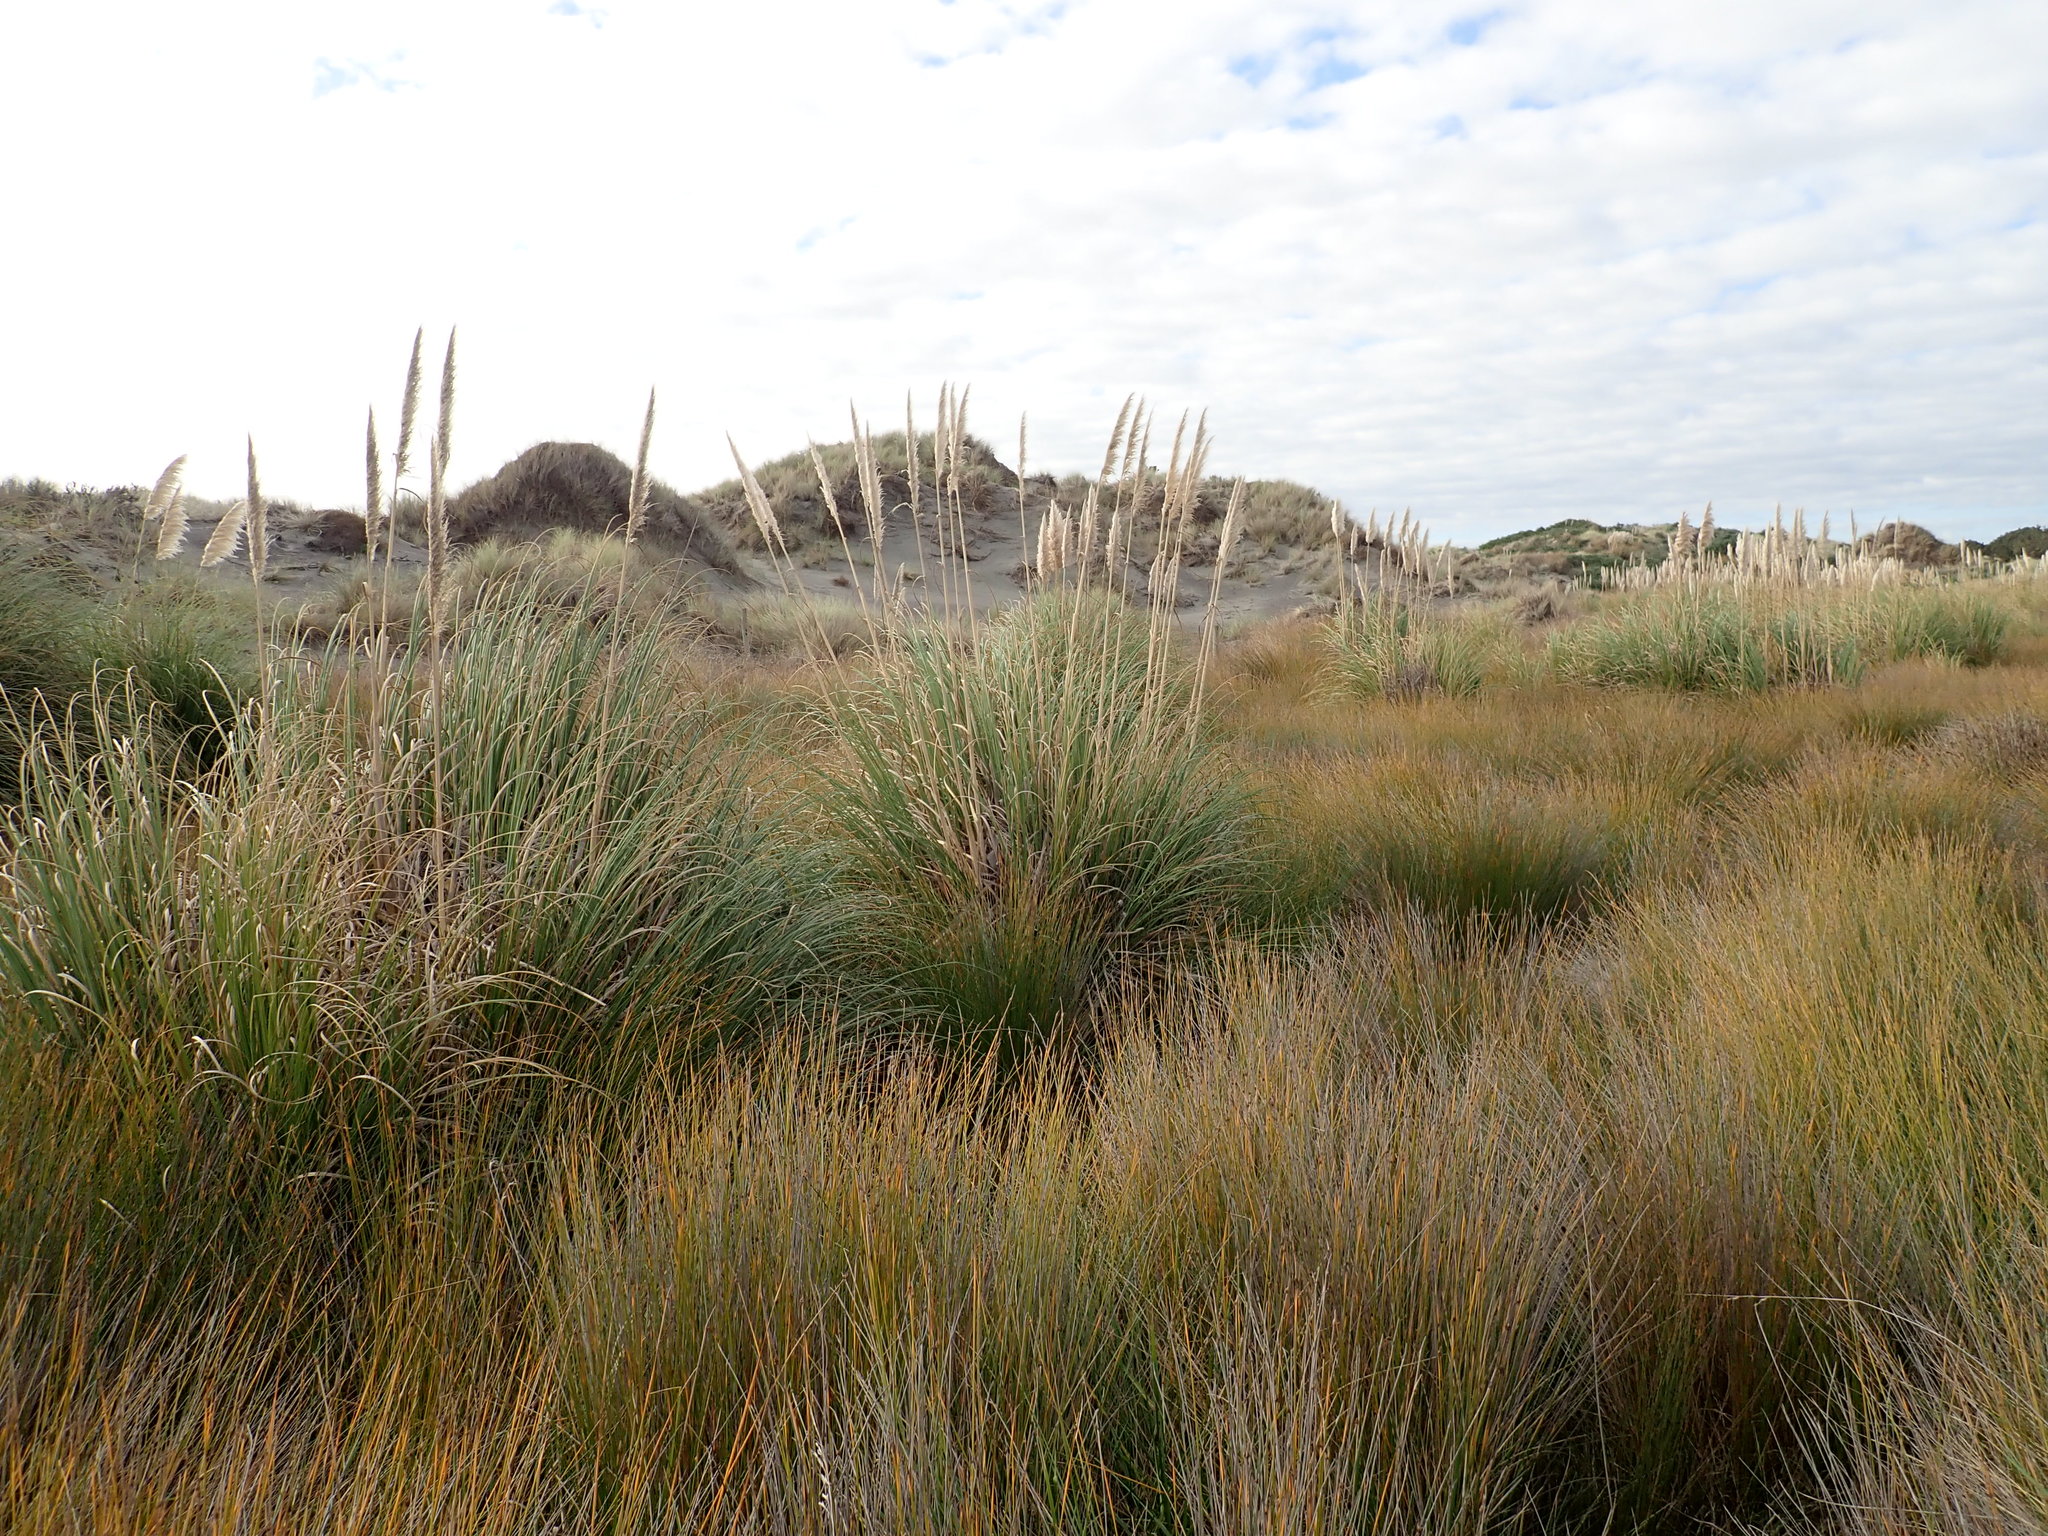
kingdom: Plantae
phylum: Tracheophyta
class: Liliopsida
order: Poales
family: Poaceae
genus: Cortaderia
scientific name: Cortaderia selloana
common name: Uruguayan pampas grass
